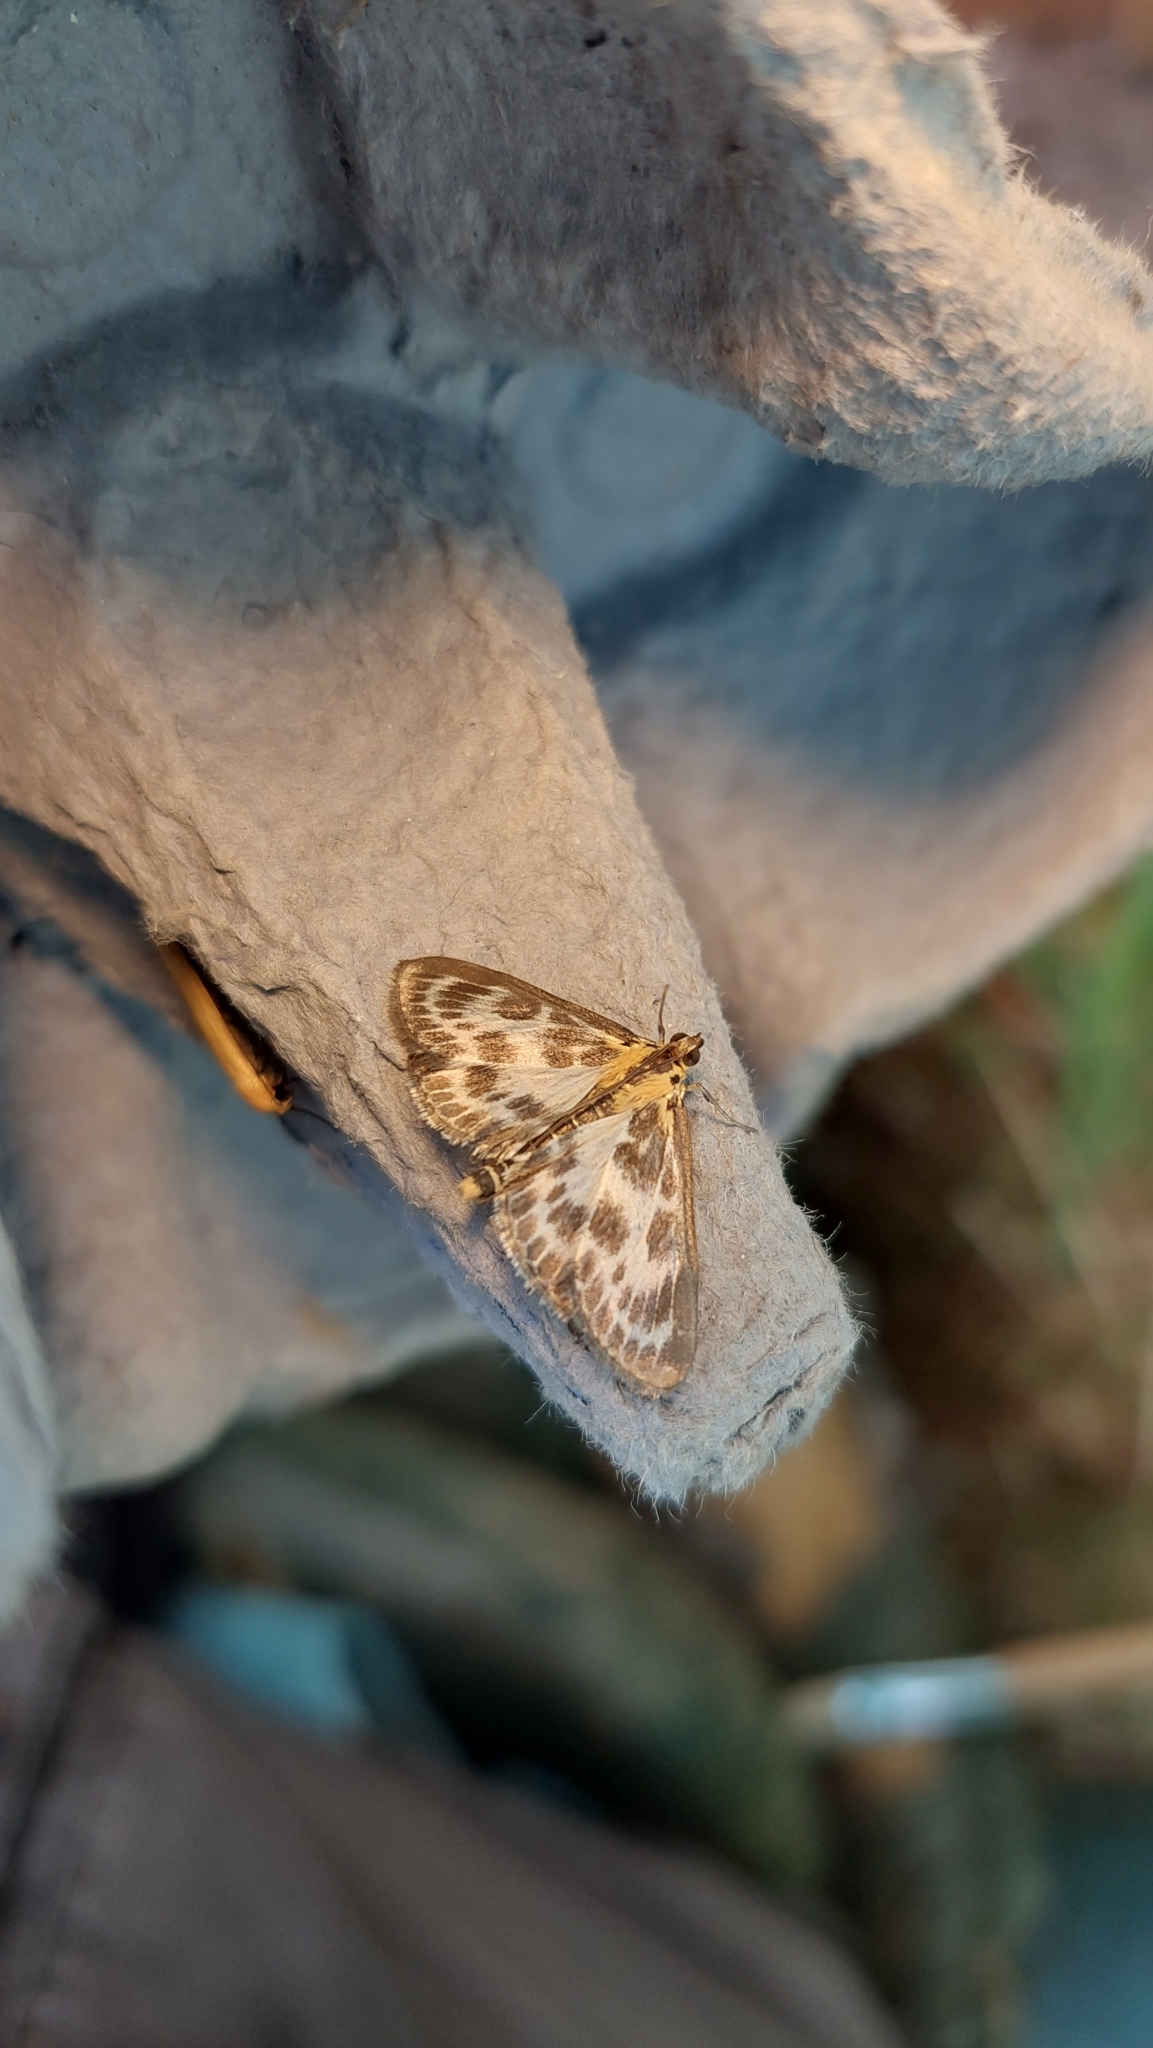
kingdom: Animalia
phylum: Arthropoda
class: Insecta
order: Lepidoptera
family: Crambidae
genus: Anania
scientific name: Anania hortulata
